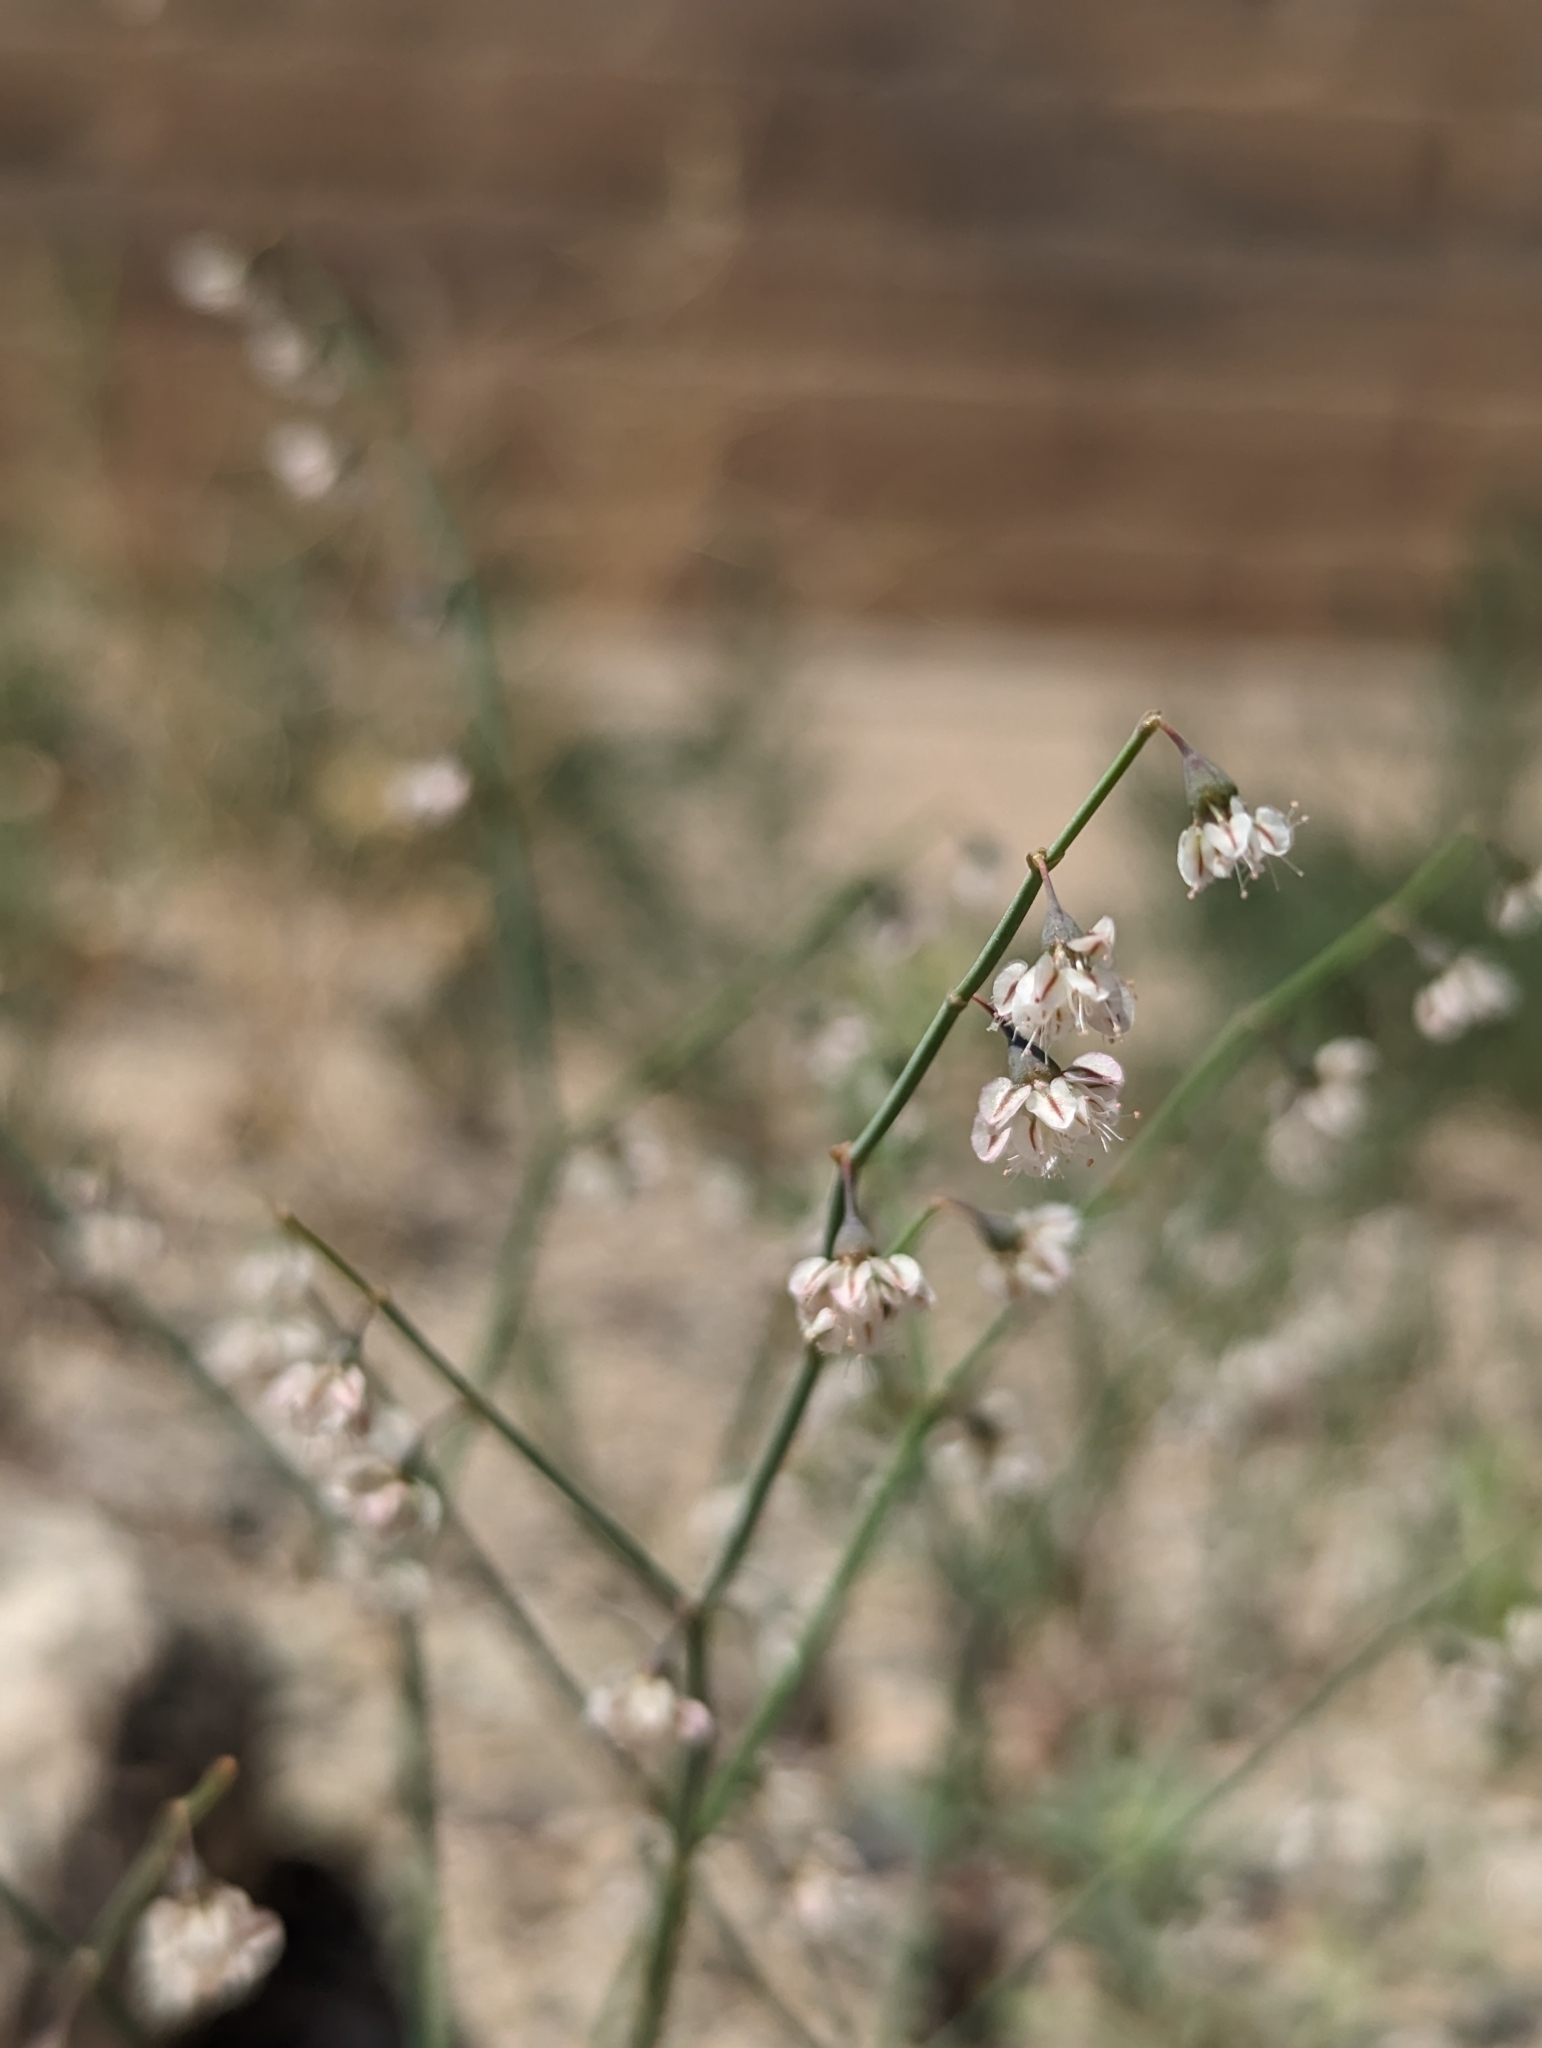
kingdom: Plantae
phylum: Tracheophyta
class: Magnoliopsida
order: Caryophyllales
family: Polygonaceae
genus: Eriogonum
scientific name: Eriogonum deflexum
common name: Skeleton-weed
